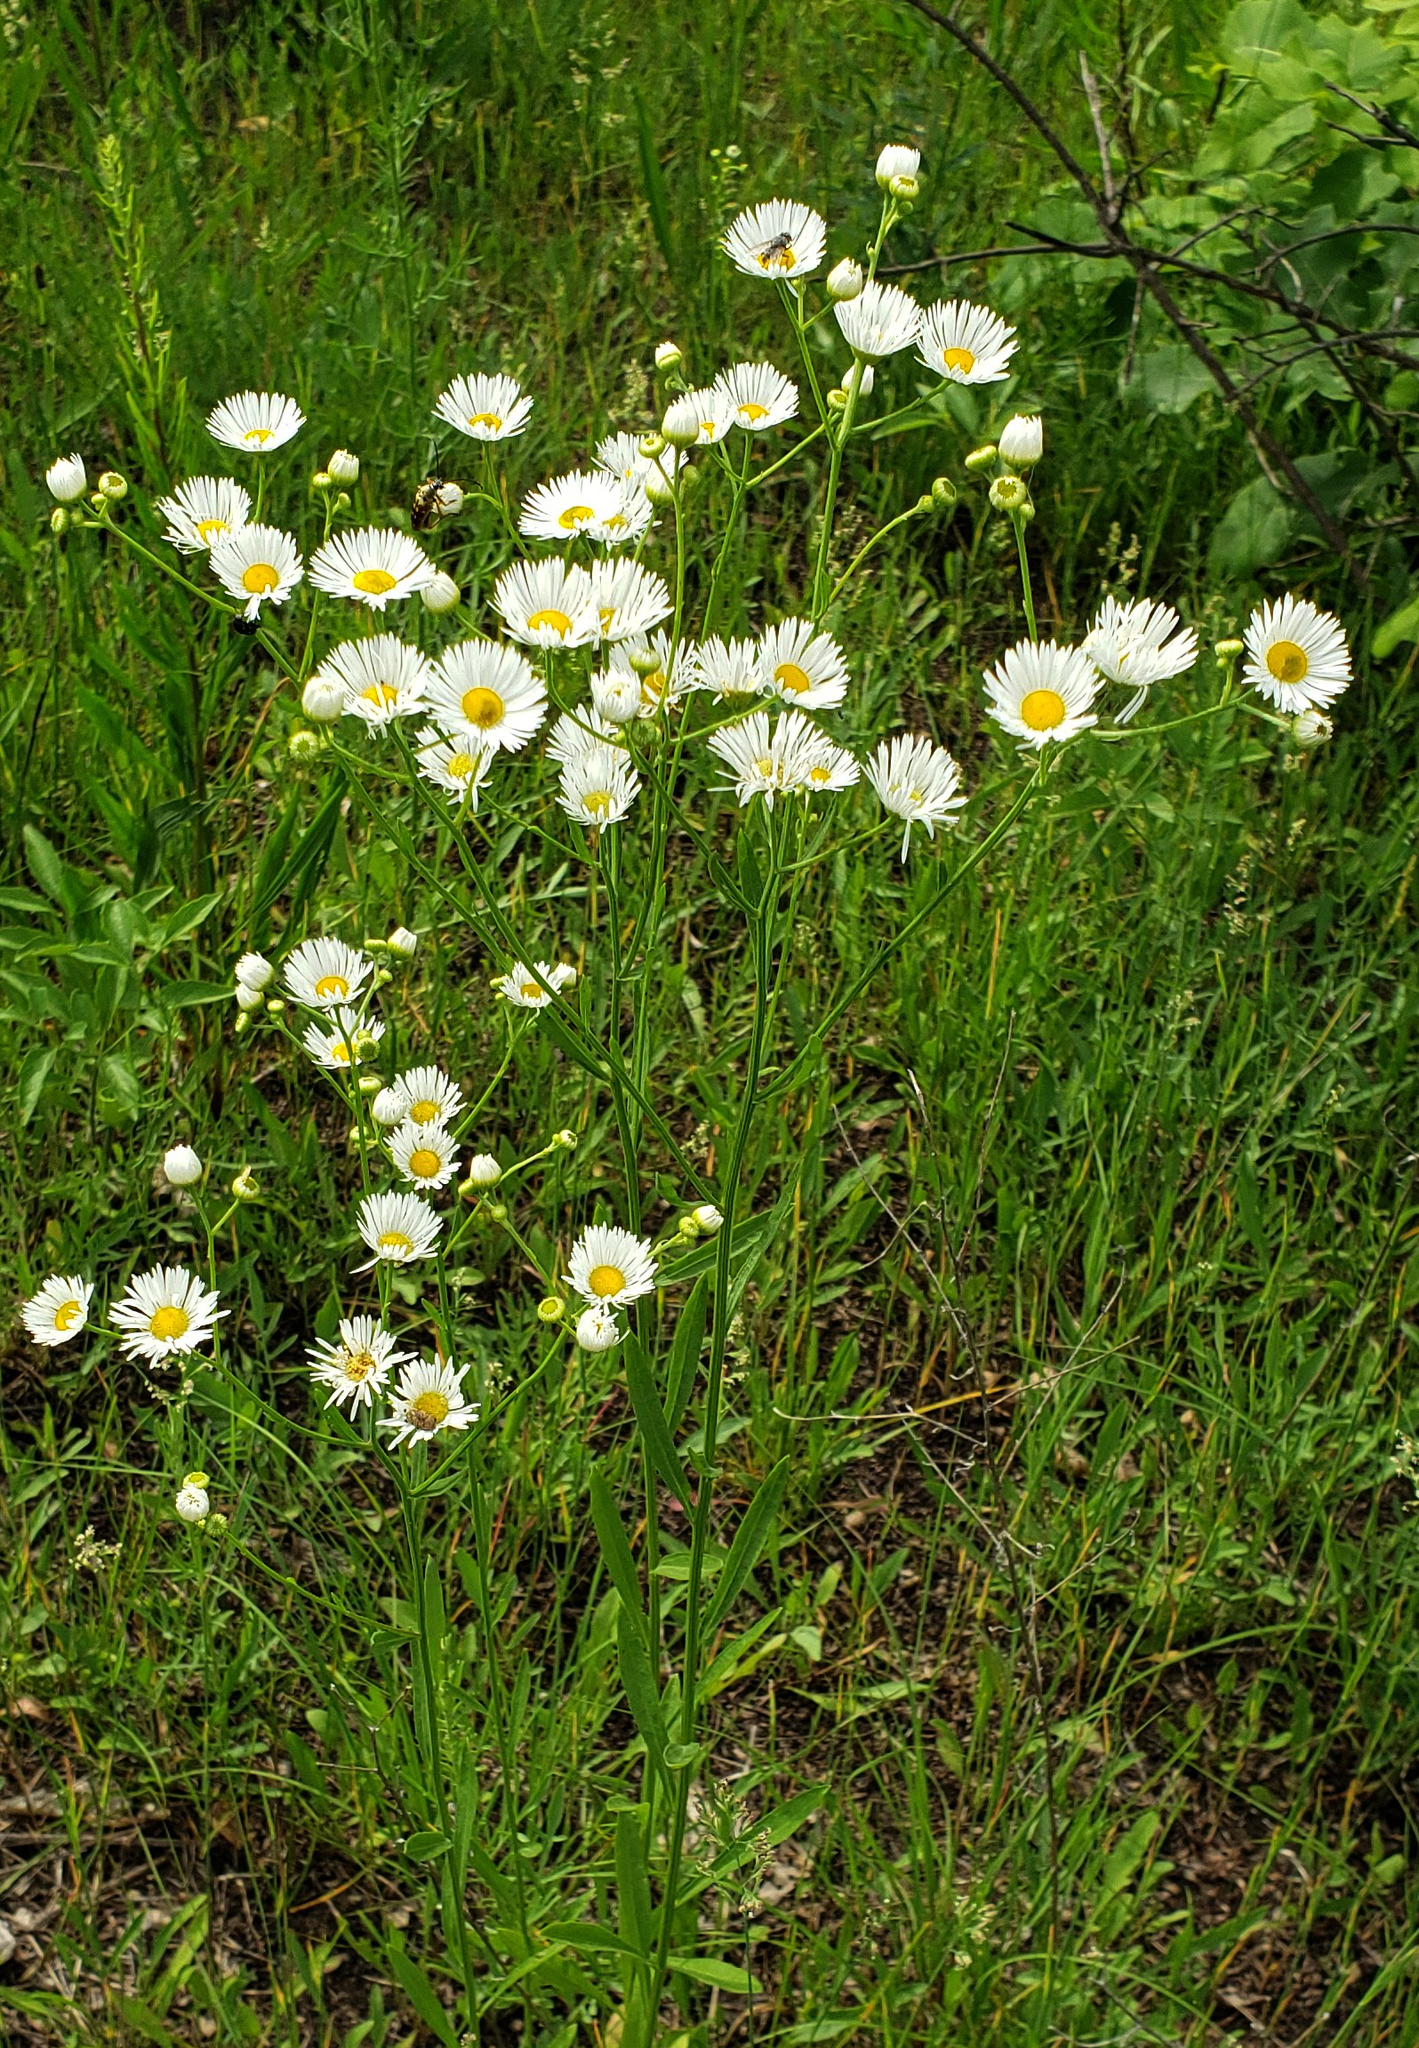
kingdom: Plantae
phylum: Tracheophyta
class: Magnoliopsida
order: Asterales
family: Asteraceae
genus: Erigeron
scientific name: Erigeron strigosus
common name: Common eastern fleabane
